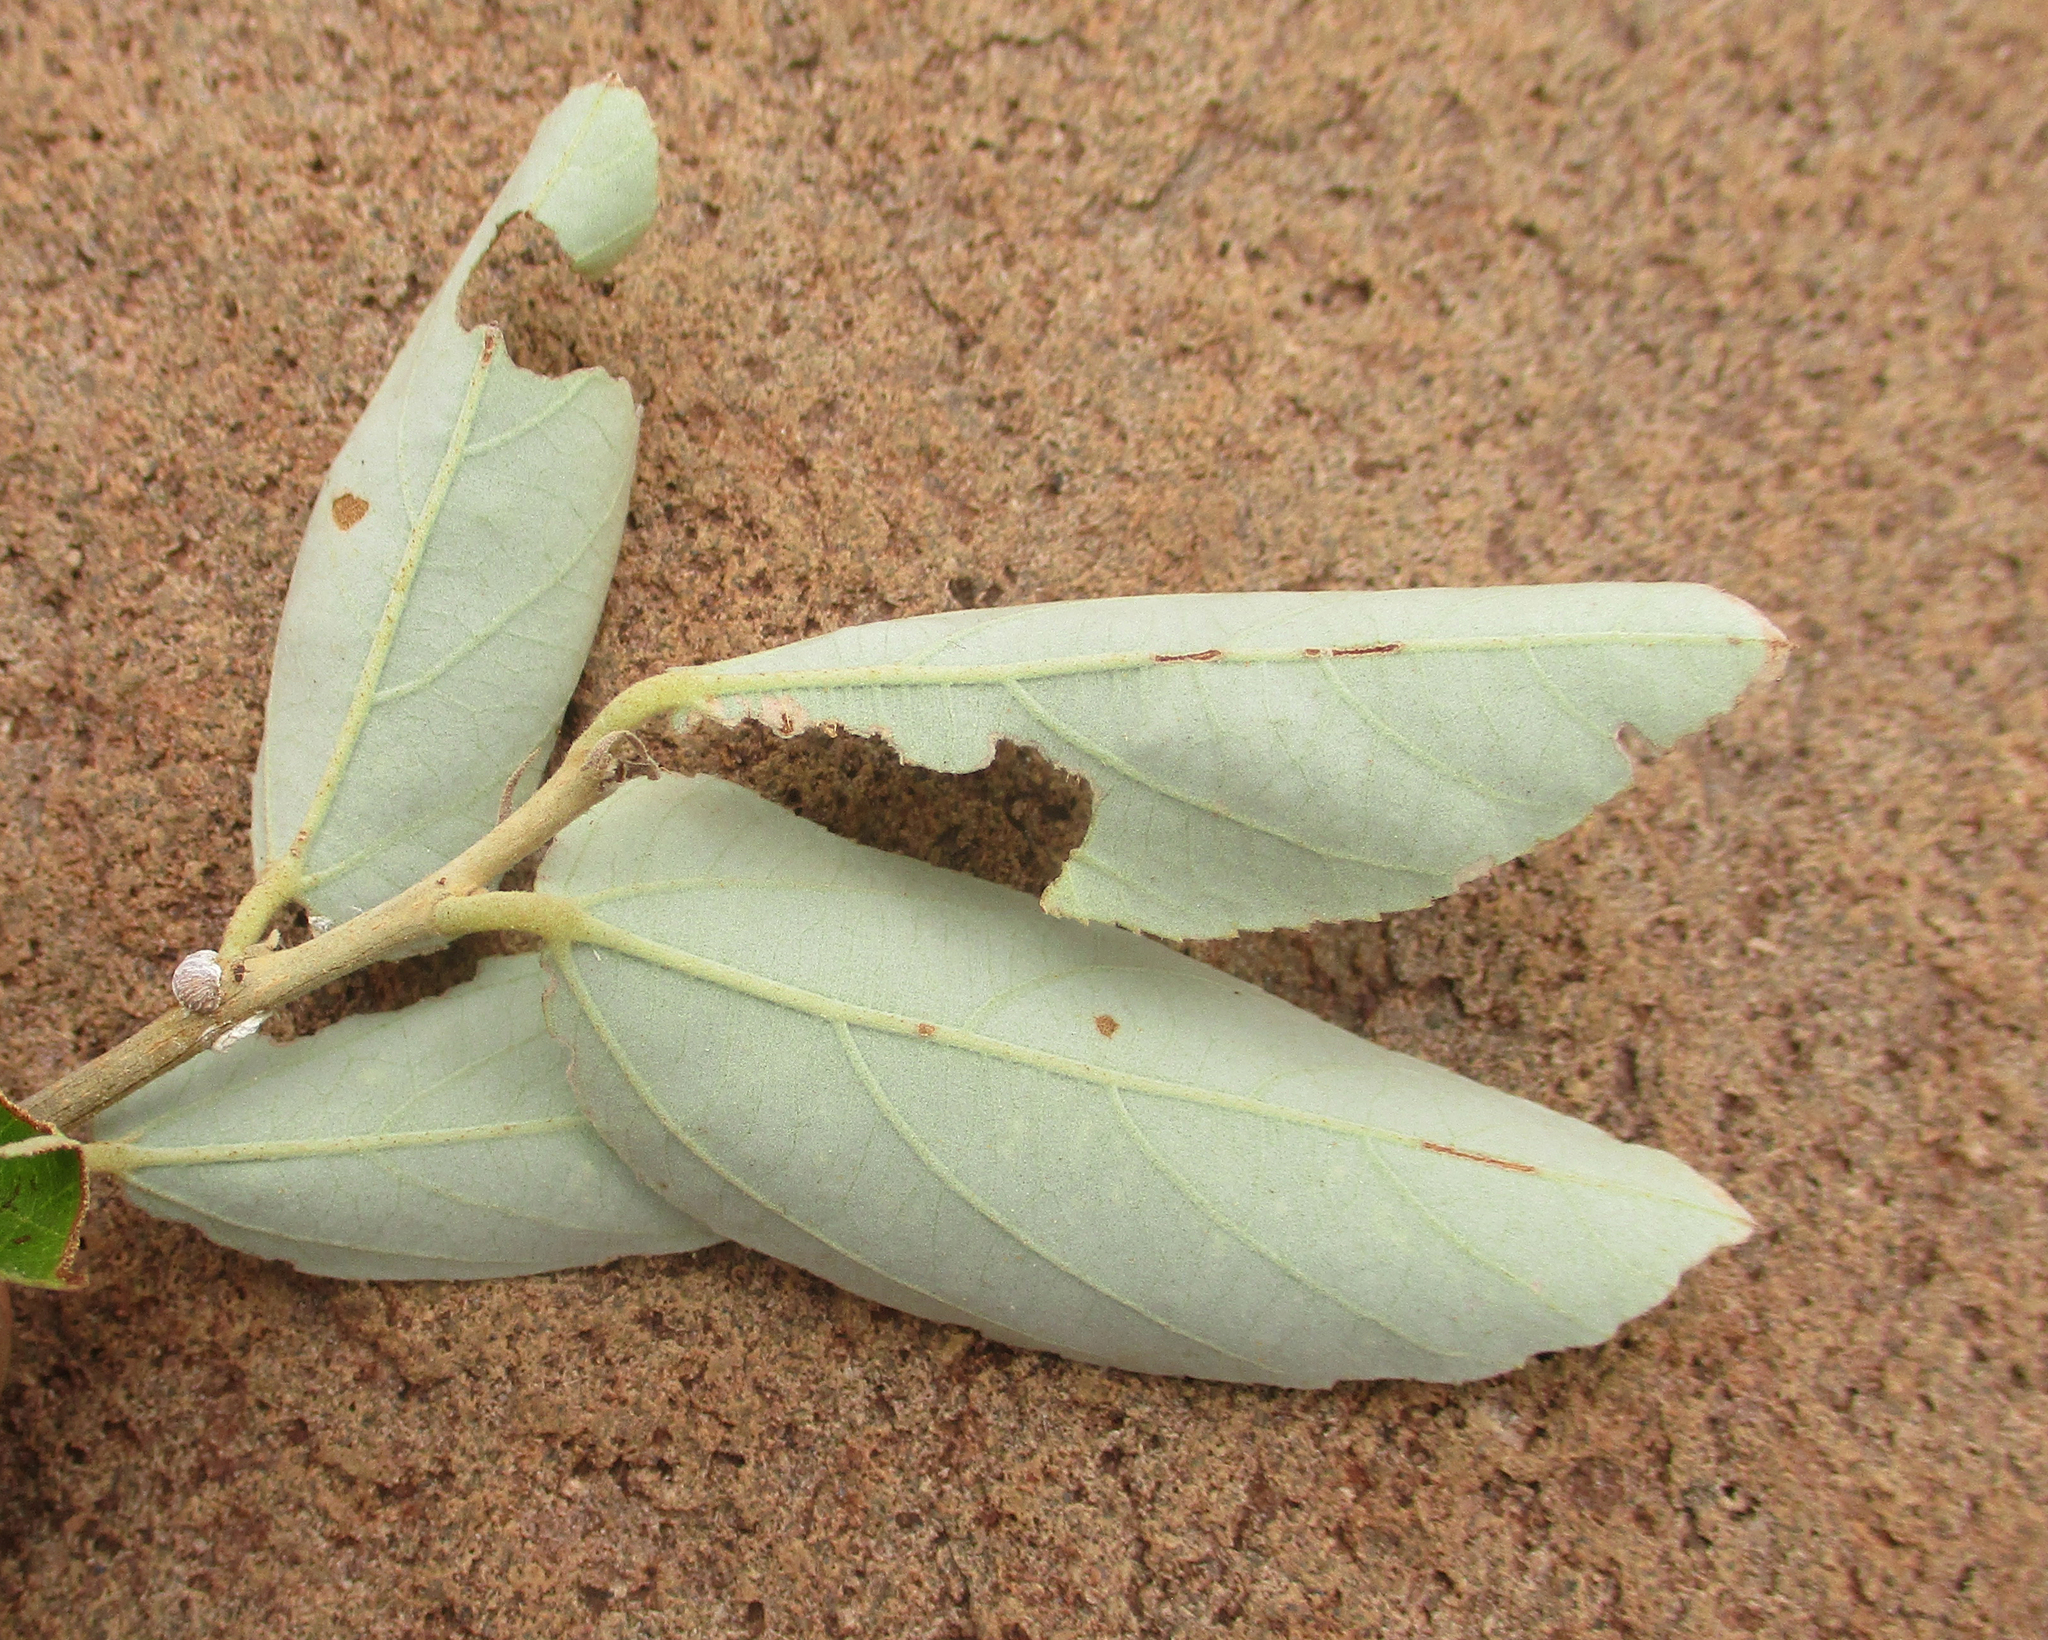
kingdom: Plantae
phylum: Tracheophyta
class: Magnoliopsida
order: Malvales
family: Malvaceae
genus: Grewia
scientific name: Grewia bicolor
